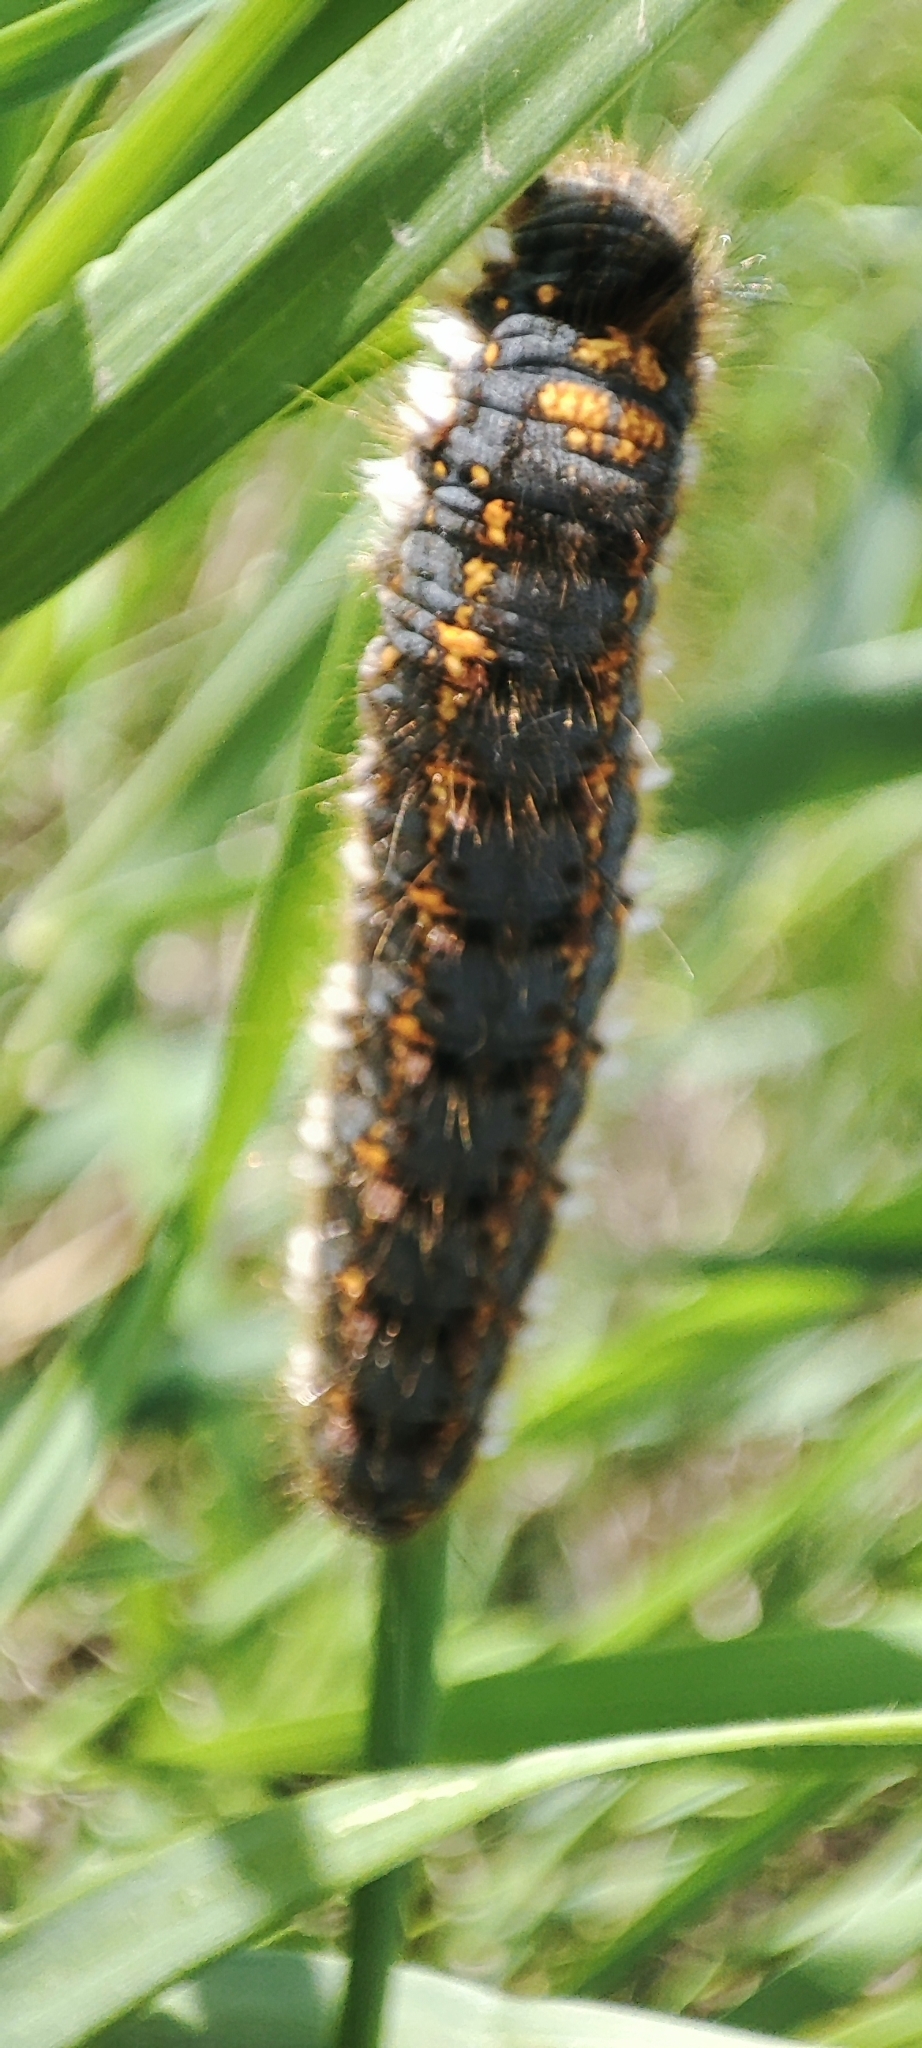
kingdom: Animalia
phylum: Arthropoda
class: Insecta
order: Lepidoptera
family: Lasiocampidae
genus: Euthrix
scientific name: Euthrix potatoria
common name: Drinker
